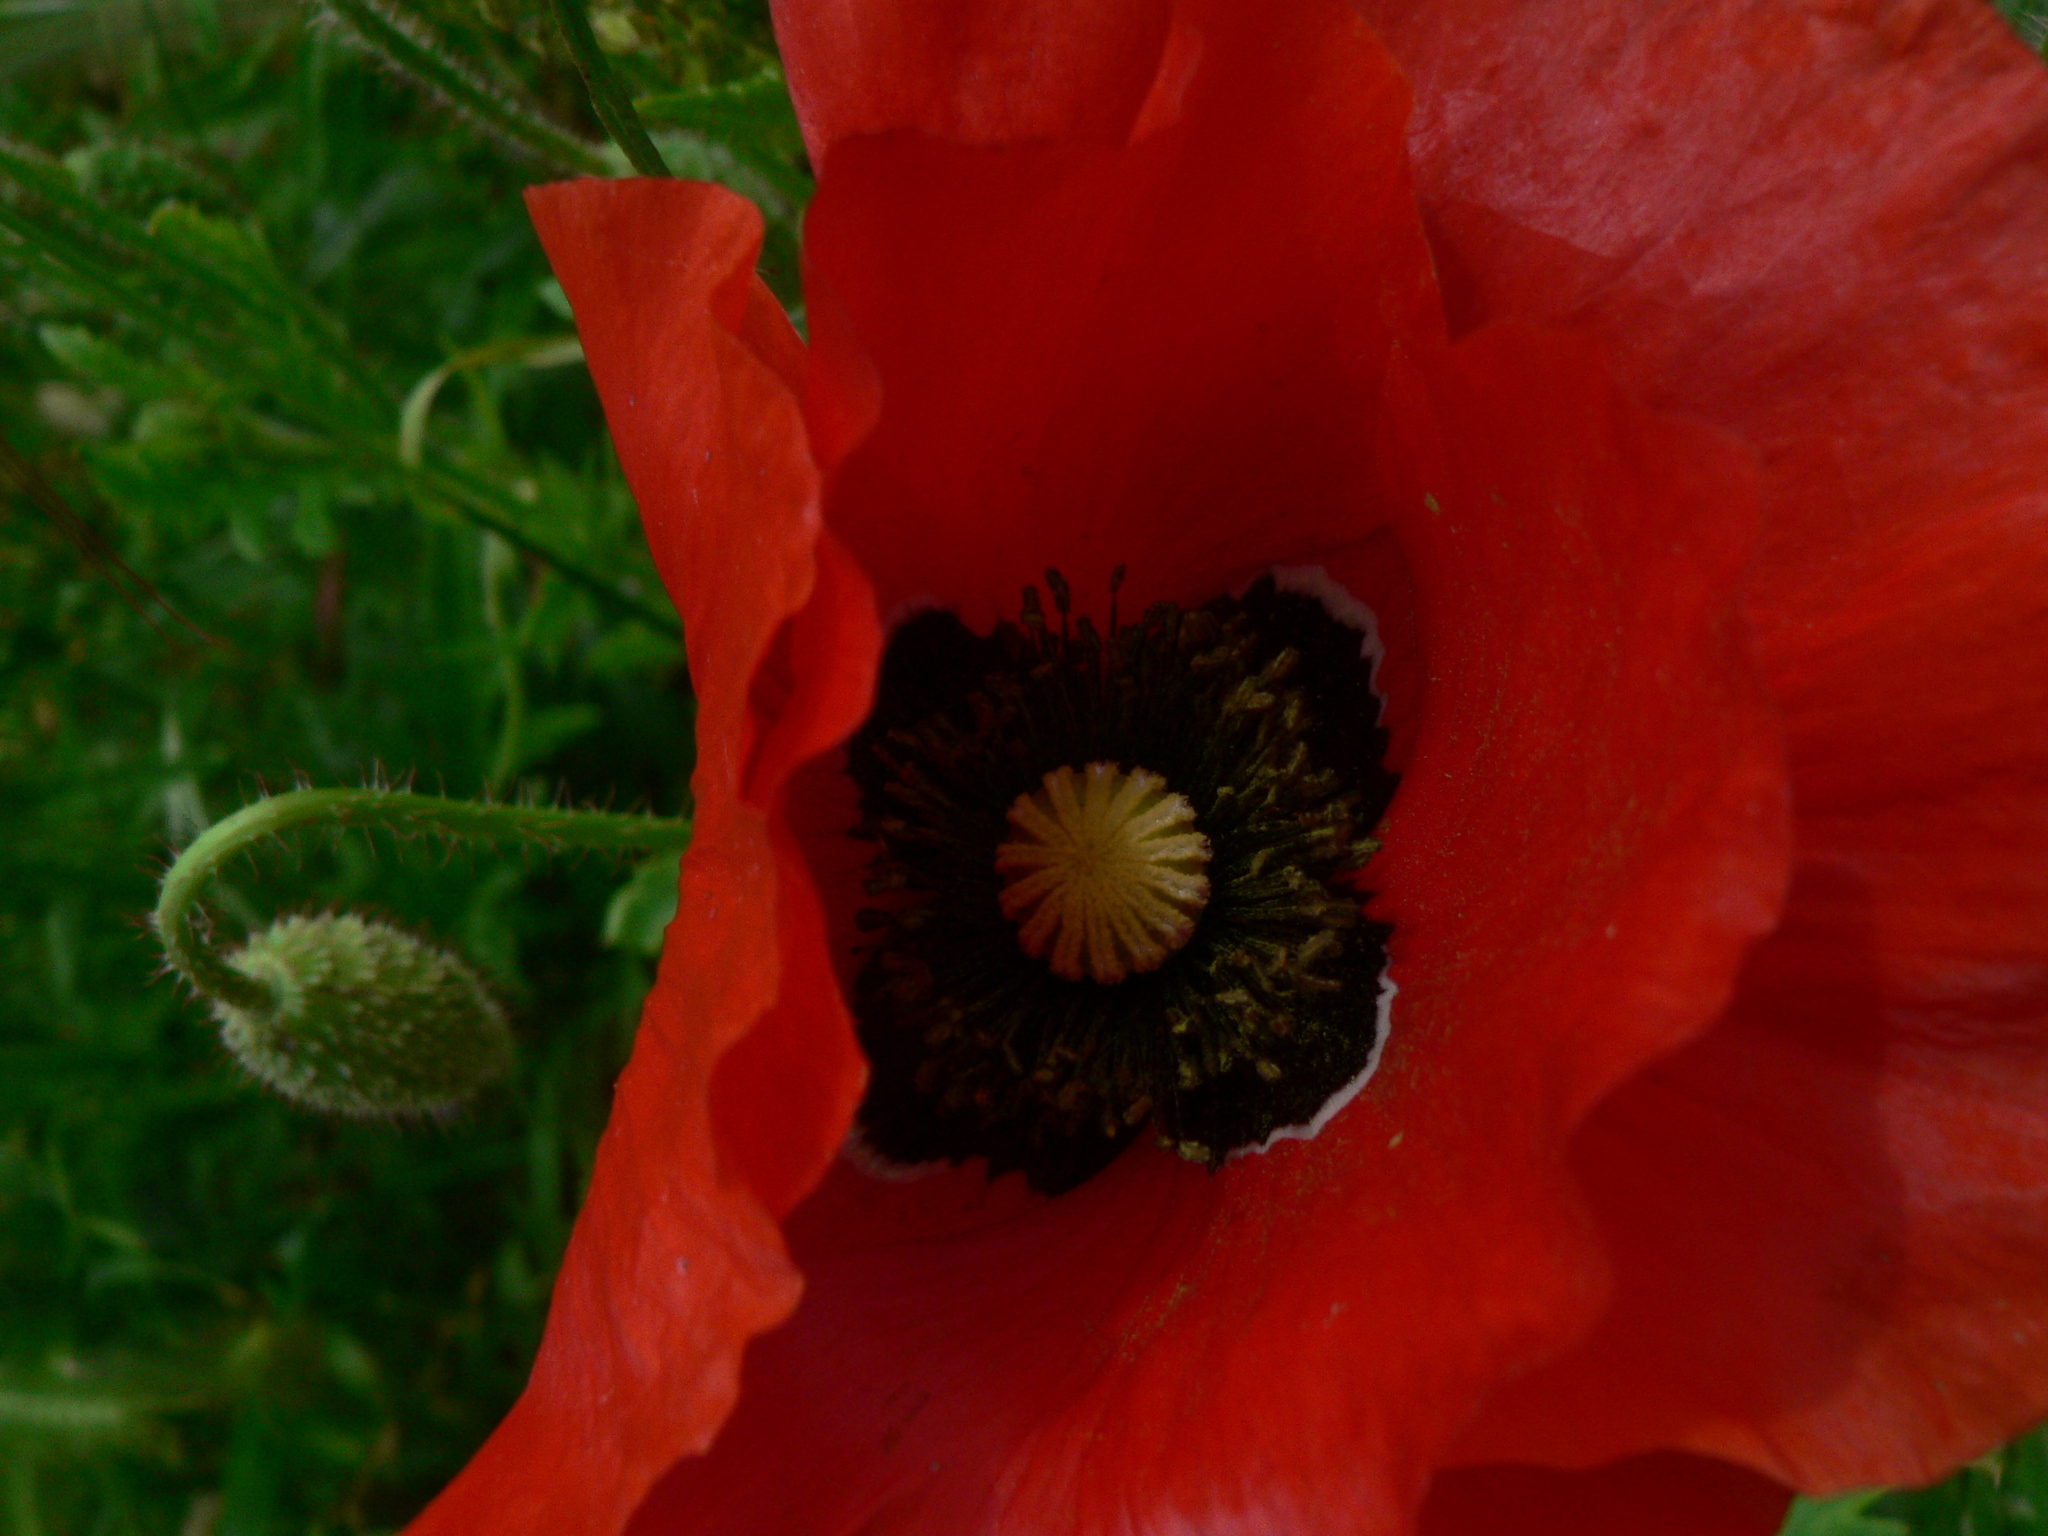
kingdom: Plantae
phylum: Tracheophyta
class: Magnoliopsida
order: Ranunculales
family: Papaveraceae
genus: Papaver
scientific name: Papaver rhoeas
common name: Corn poppy
